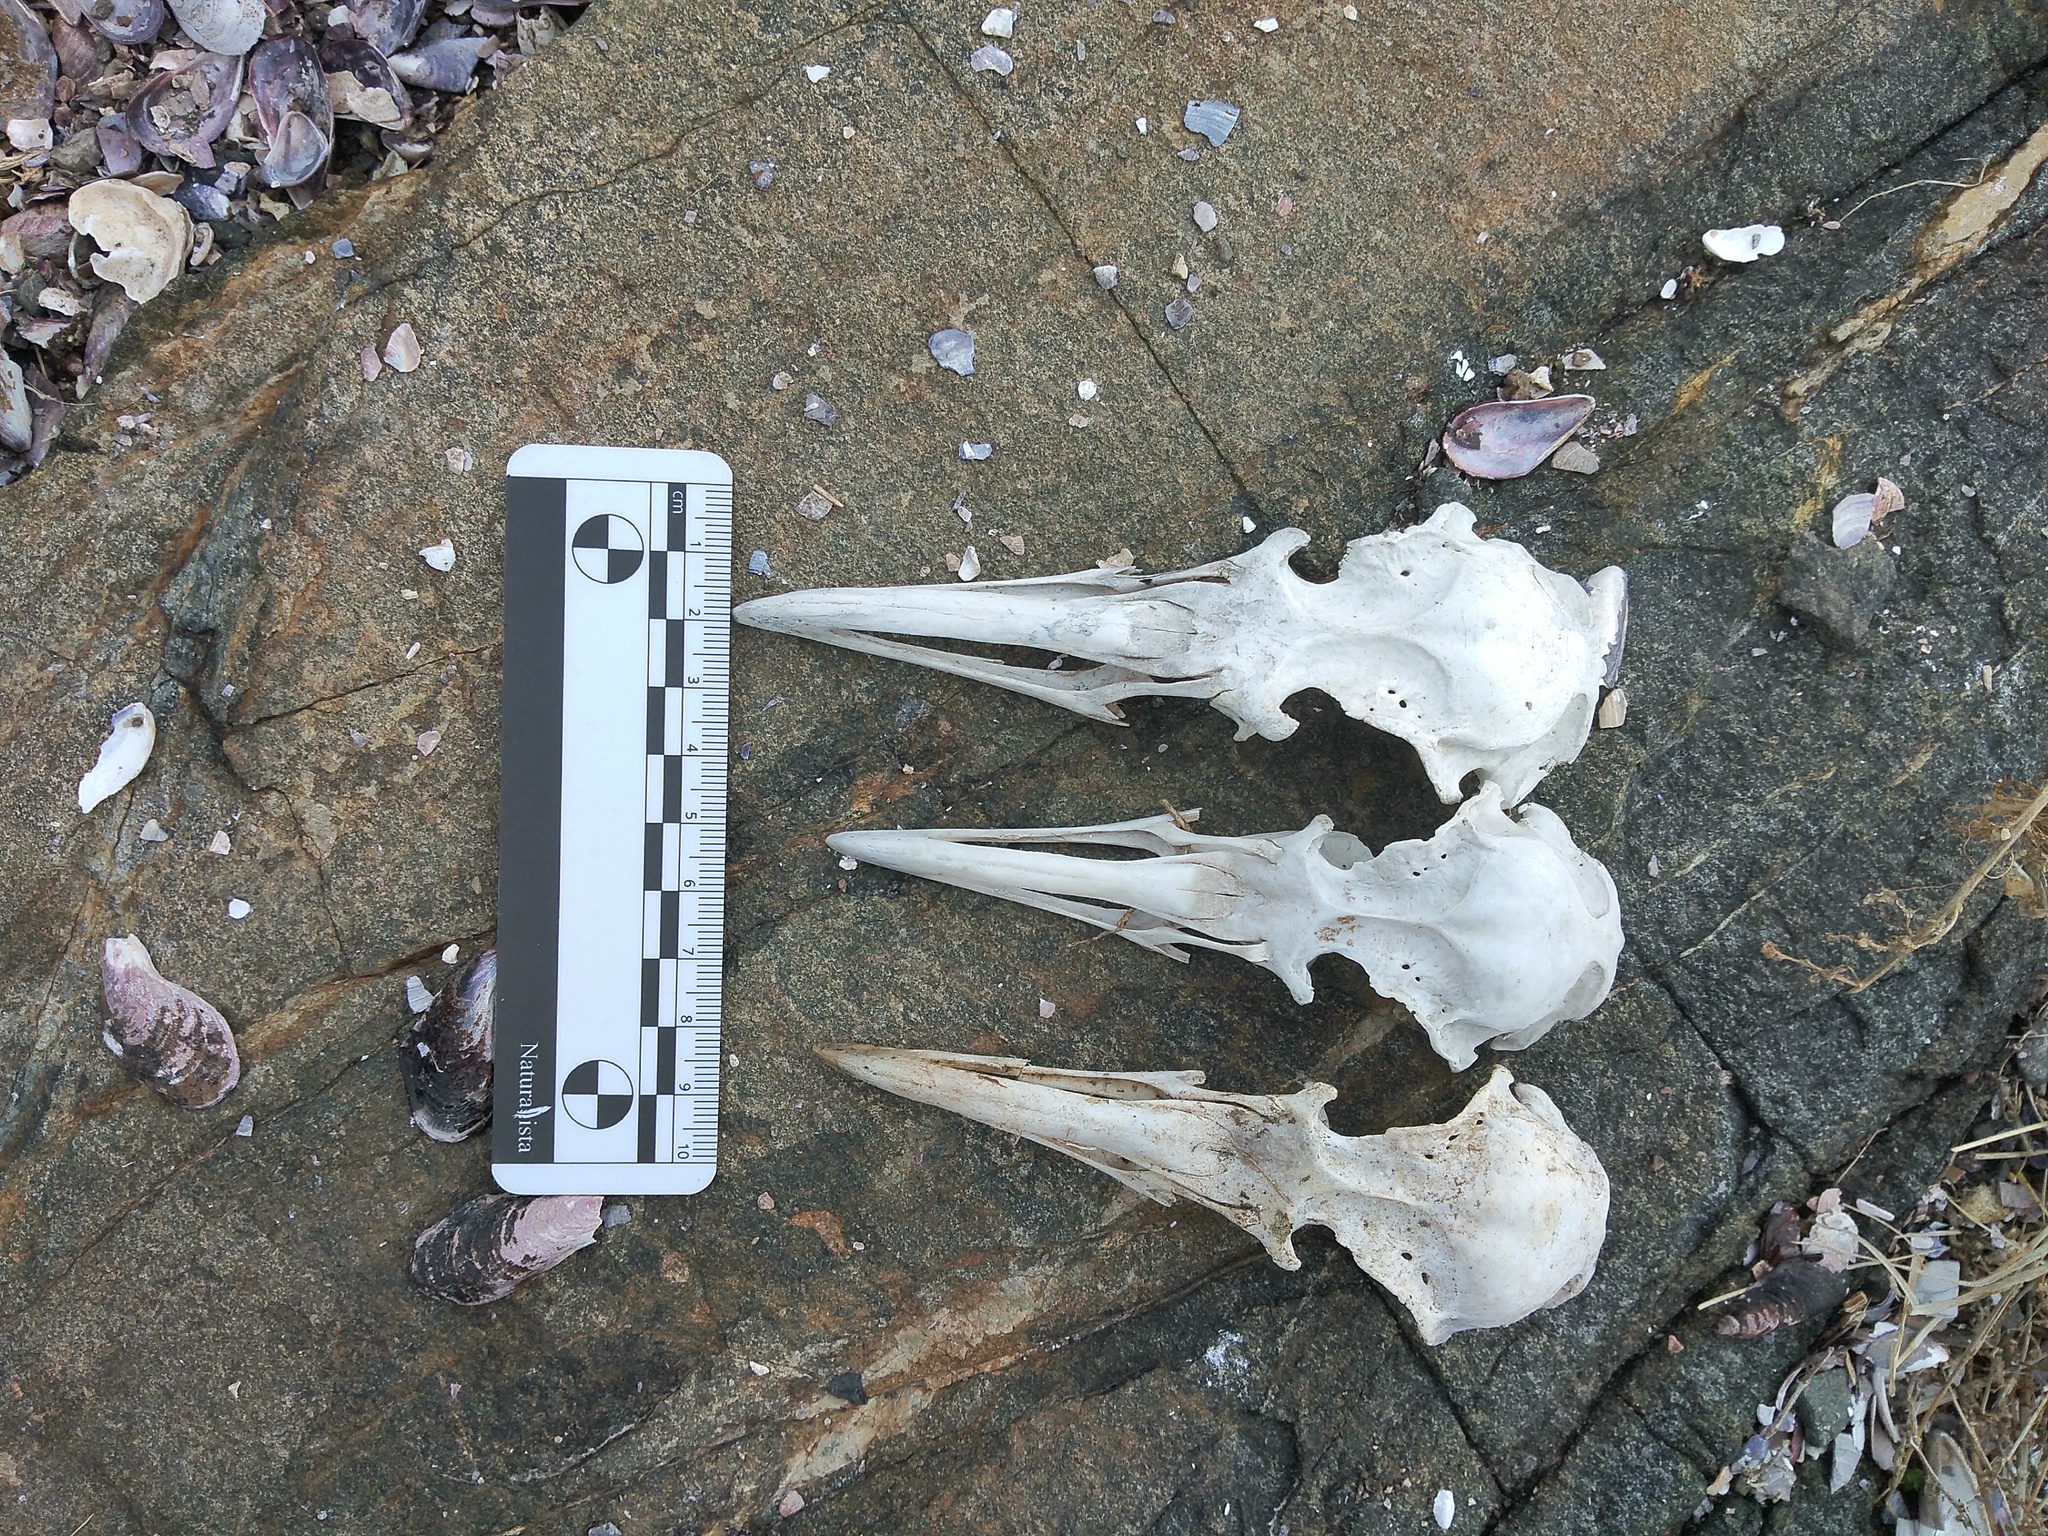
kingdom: Animalia
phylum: Chordata
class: Aves
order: Charadriiformes
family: Laridae
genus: Larus
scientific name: Larus dominicanus
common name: Kelp gull
